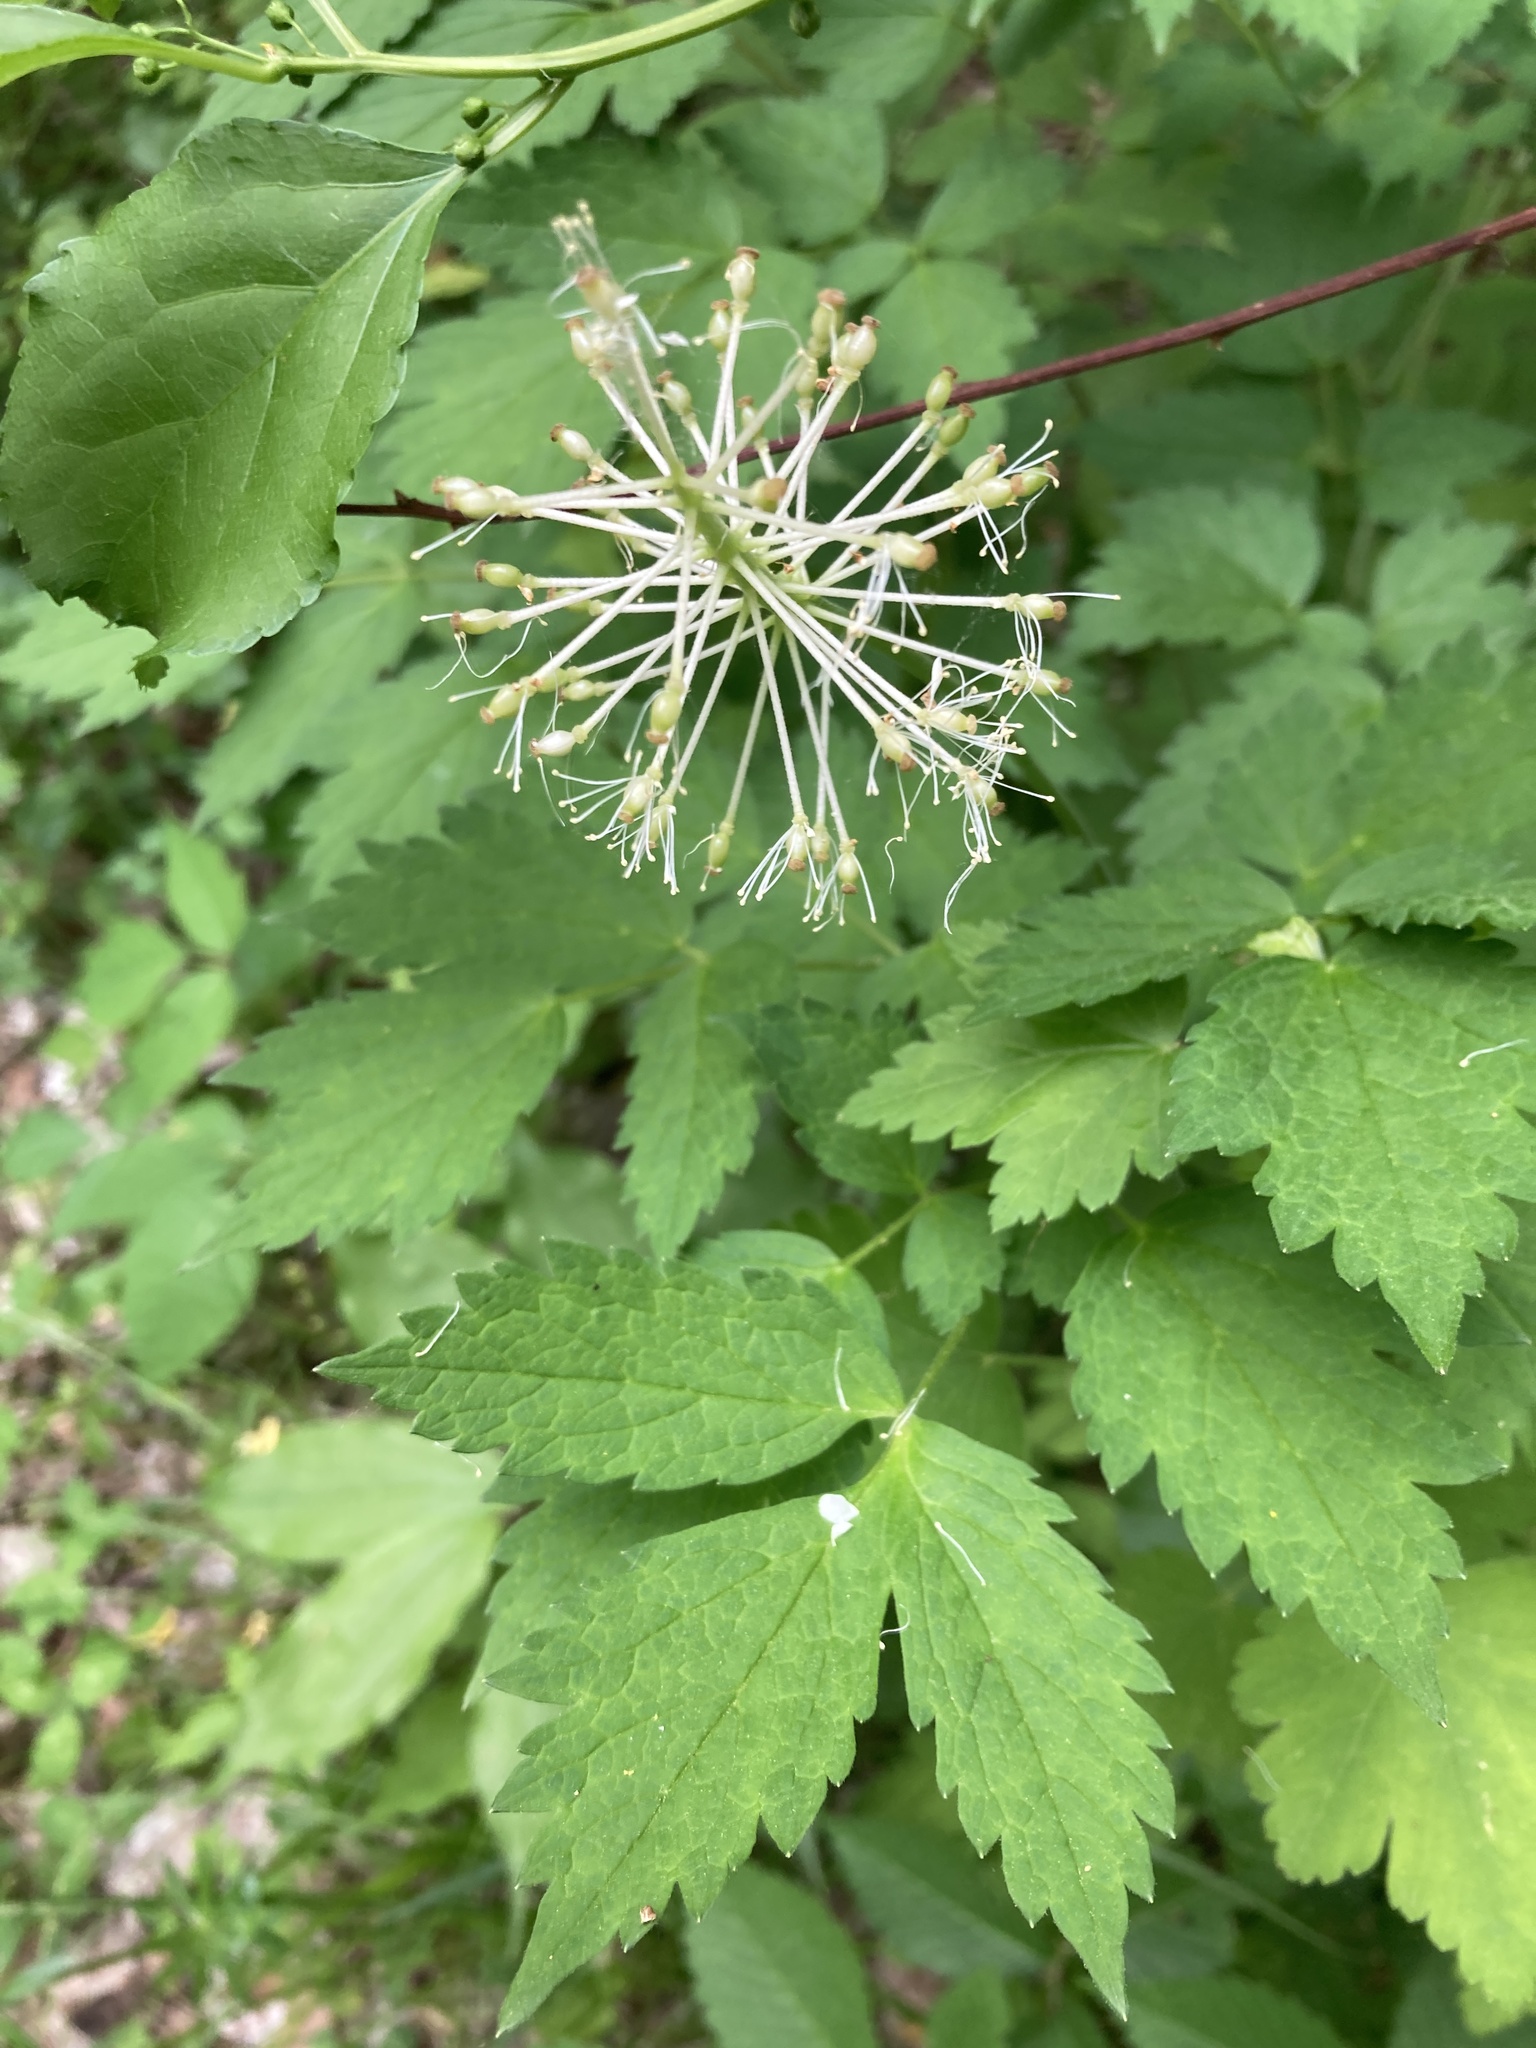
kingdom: Plantae
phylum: Tracheophyta
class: Magnoliopsida
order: Ranunculales
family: Ranunculaceae
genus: Actaea
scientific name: Actaea rubra
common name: Red baneberry
